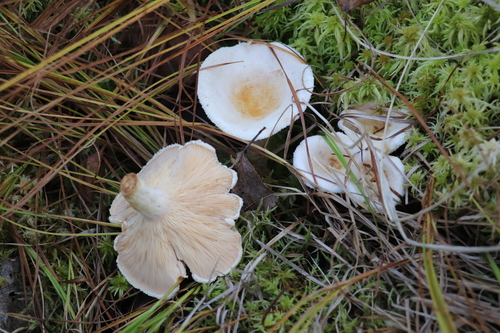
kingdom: Fungi
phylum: Basidiomycota
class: Agaricomycetes
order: Russulales
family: Russulaceae
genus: Lactarius
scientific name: Lactarius pubescens
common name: Bearded milkcap
